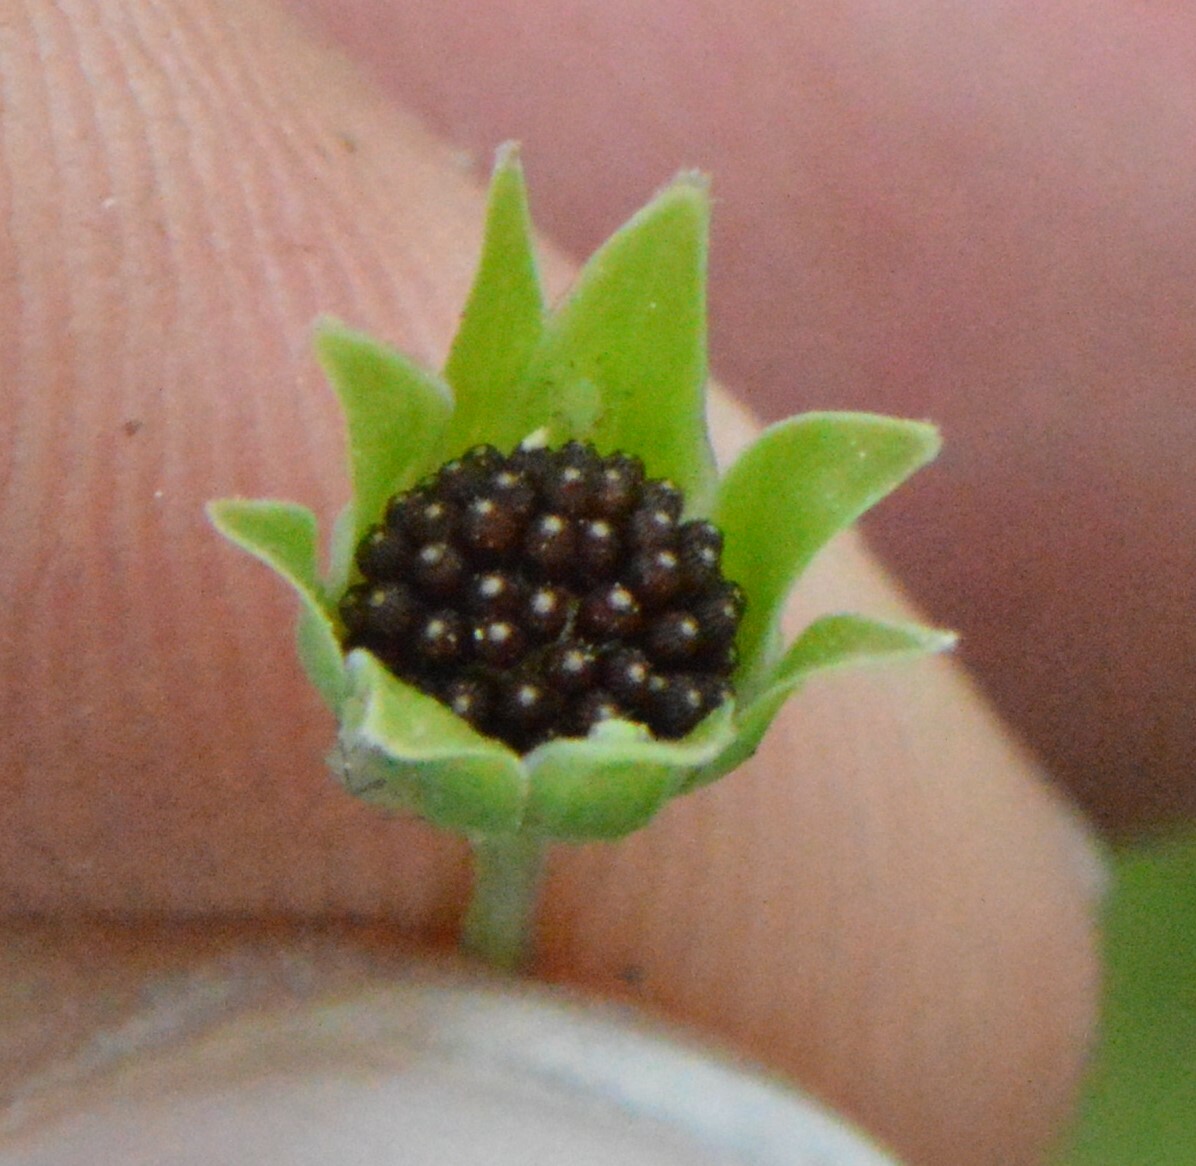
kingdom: Plantae
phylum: Tracheophyta
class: Magnoliopsida
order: Asterales
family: Asteraceae
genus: Krigia
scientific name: Krigia cespitosa
